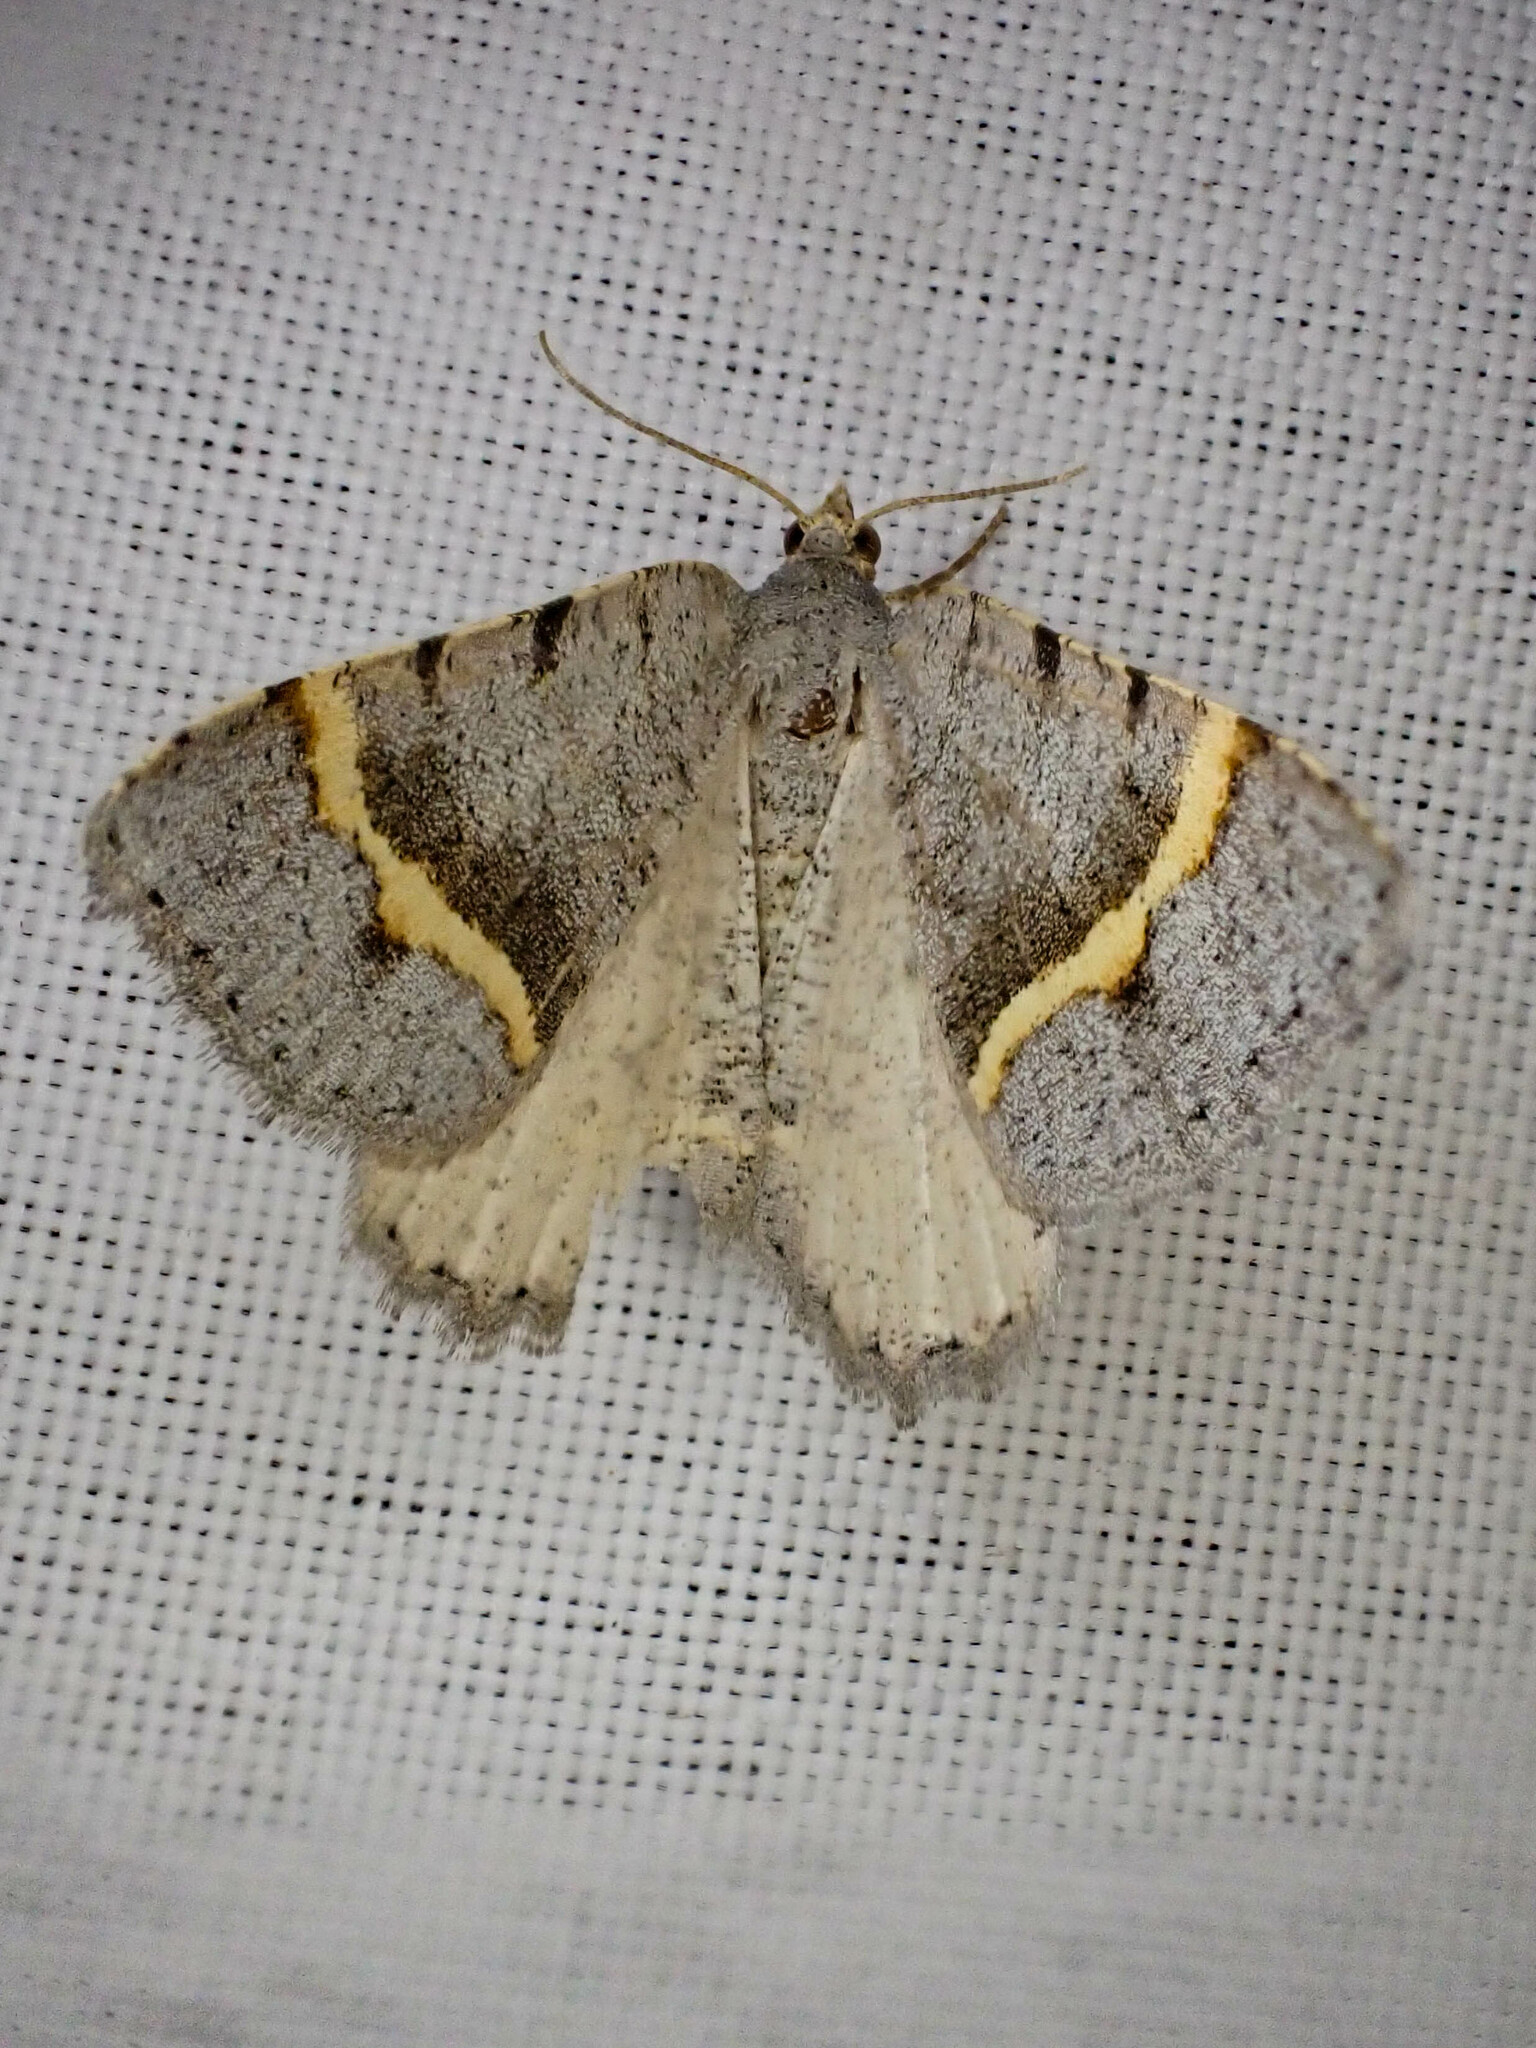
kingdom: Animalia
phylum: Arthropoda
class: Insecta
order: Lepidoptera
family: Geometridae
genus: Macaria
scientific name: Macaria austrinata
